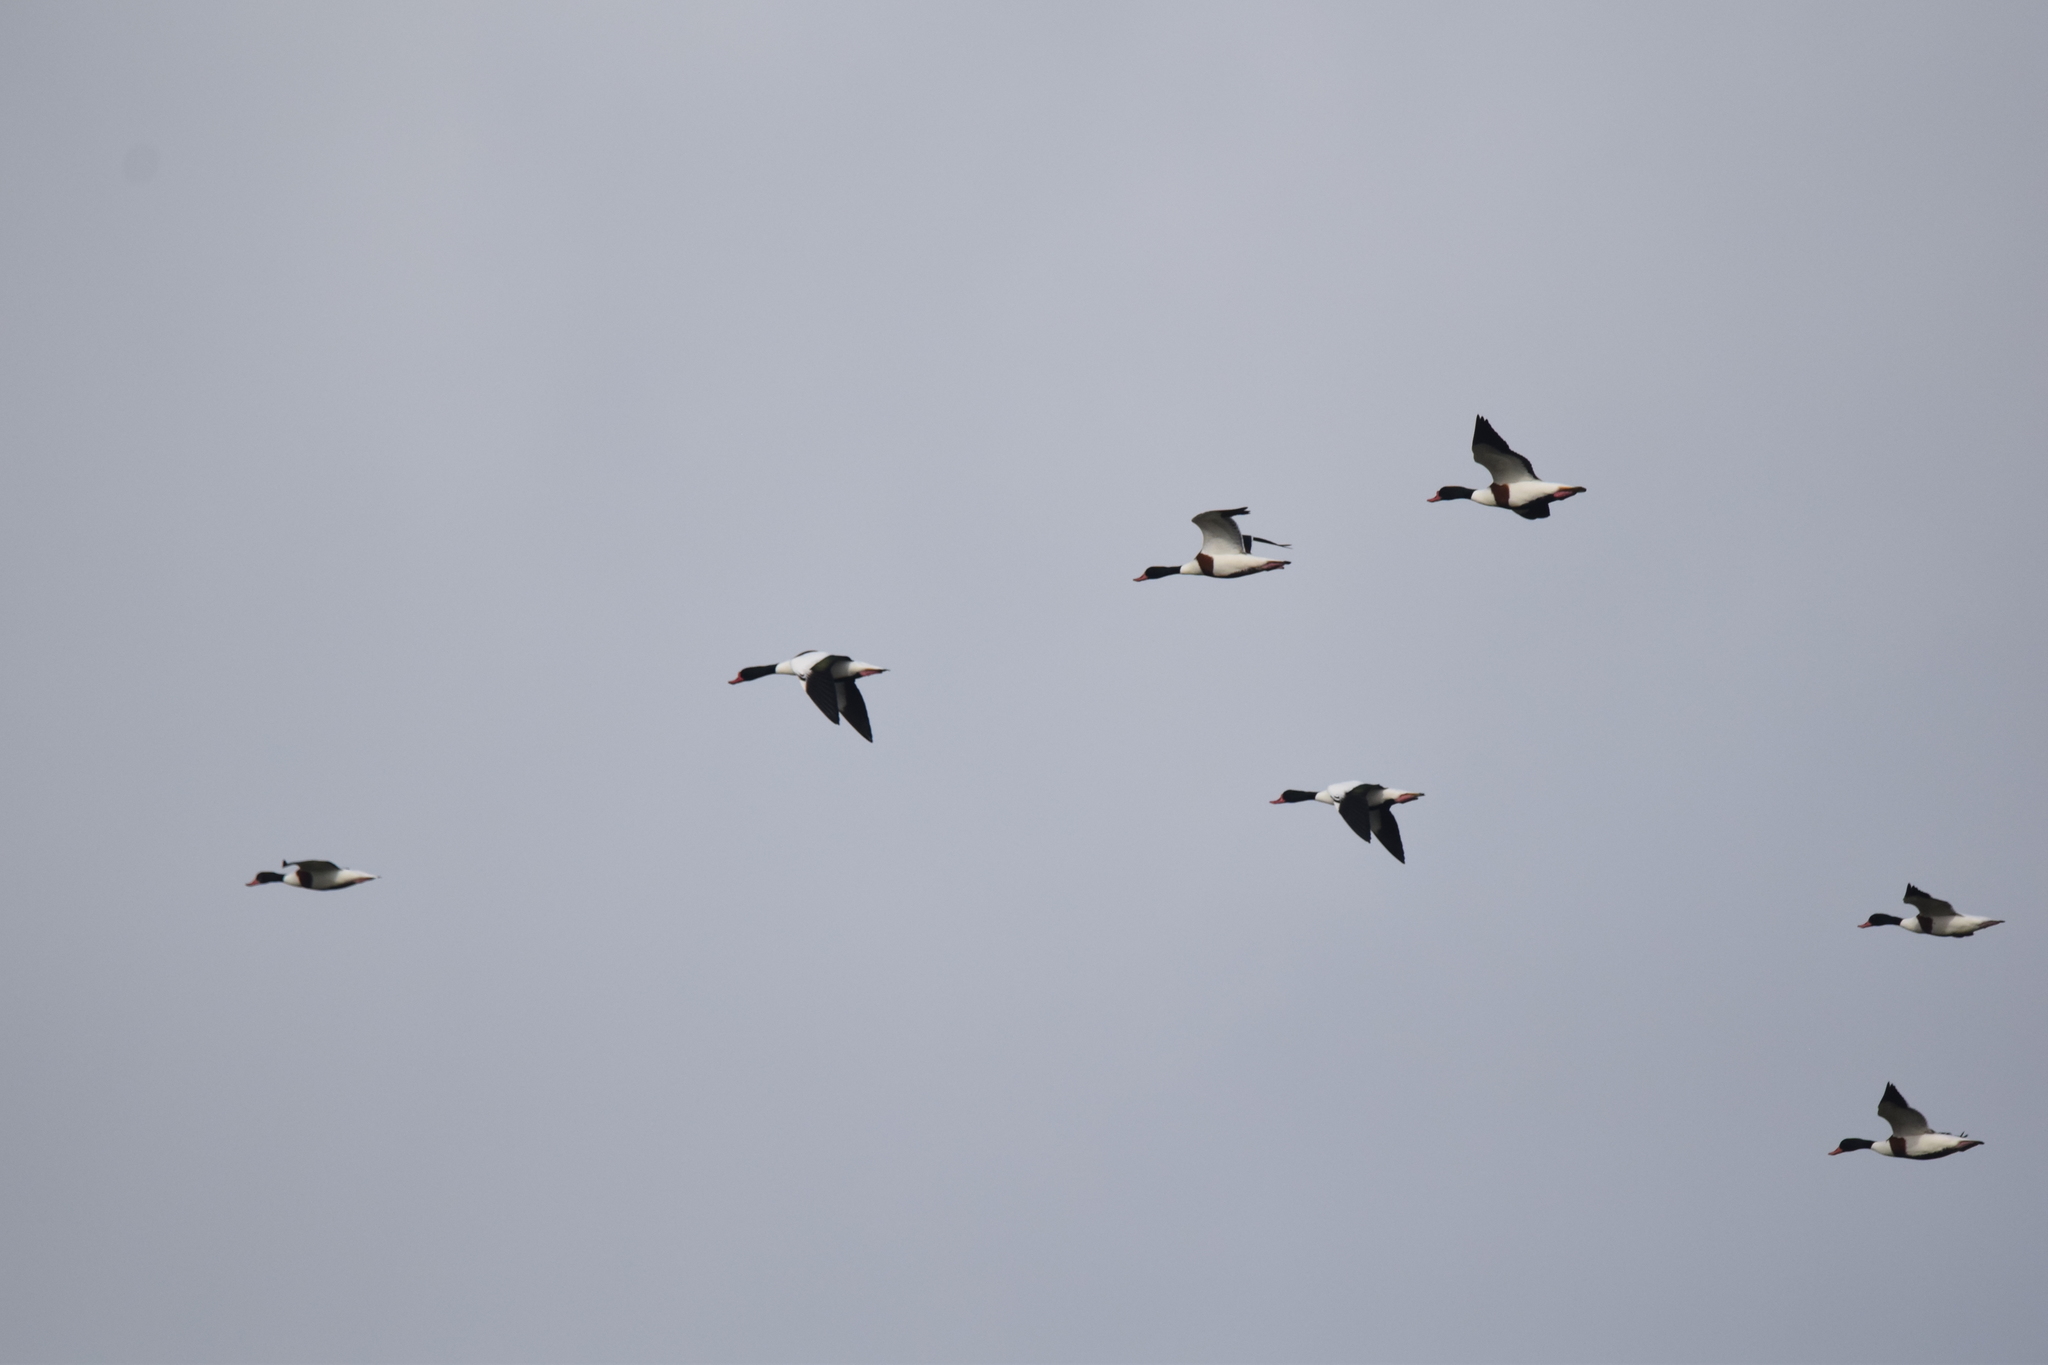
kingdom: Animalia
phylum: Chordata
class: Aves
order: Anseriformes
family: Anatidae
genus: Tadorna
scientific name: Tadorna tadorna
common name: Common shelduck
